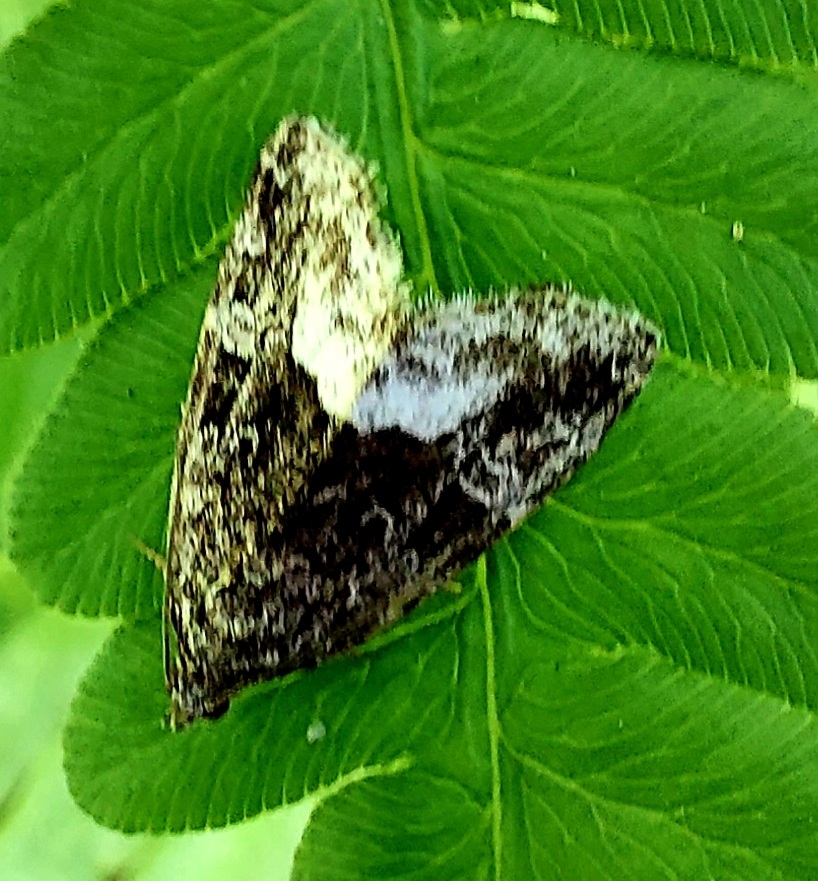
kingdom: Animalia
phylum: Arthropoda
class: Insecta
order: Lepidoptera
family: Noctuidae
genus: Deltote
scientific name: Deltote pygarga
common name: Marbled white spot
